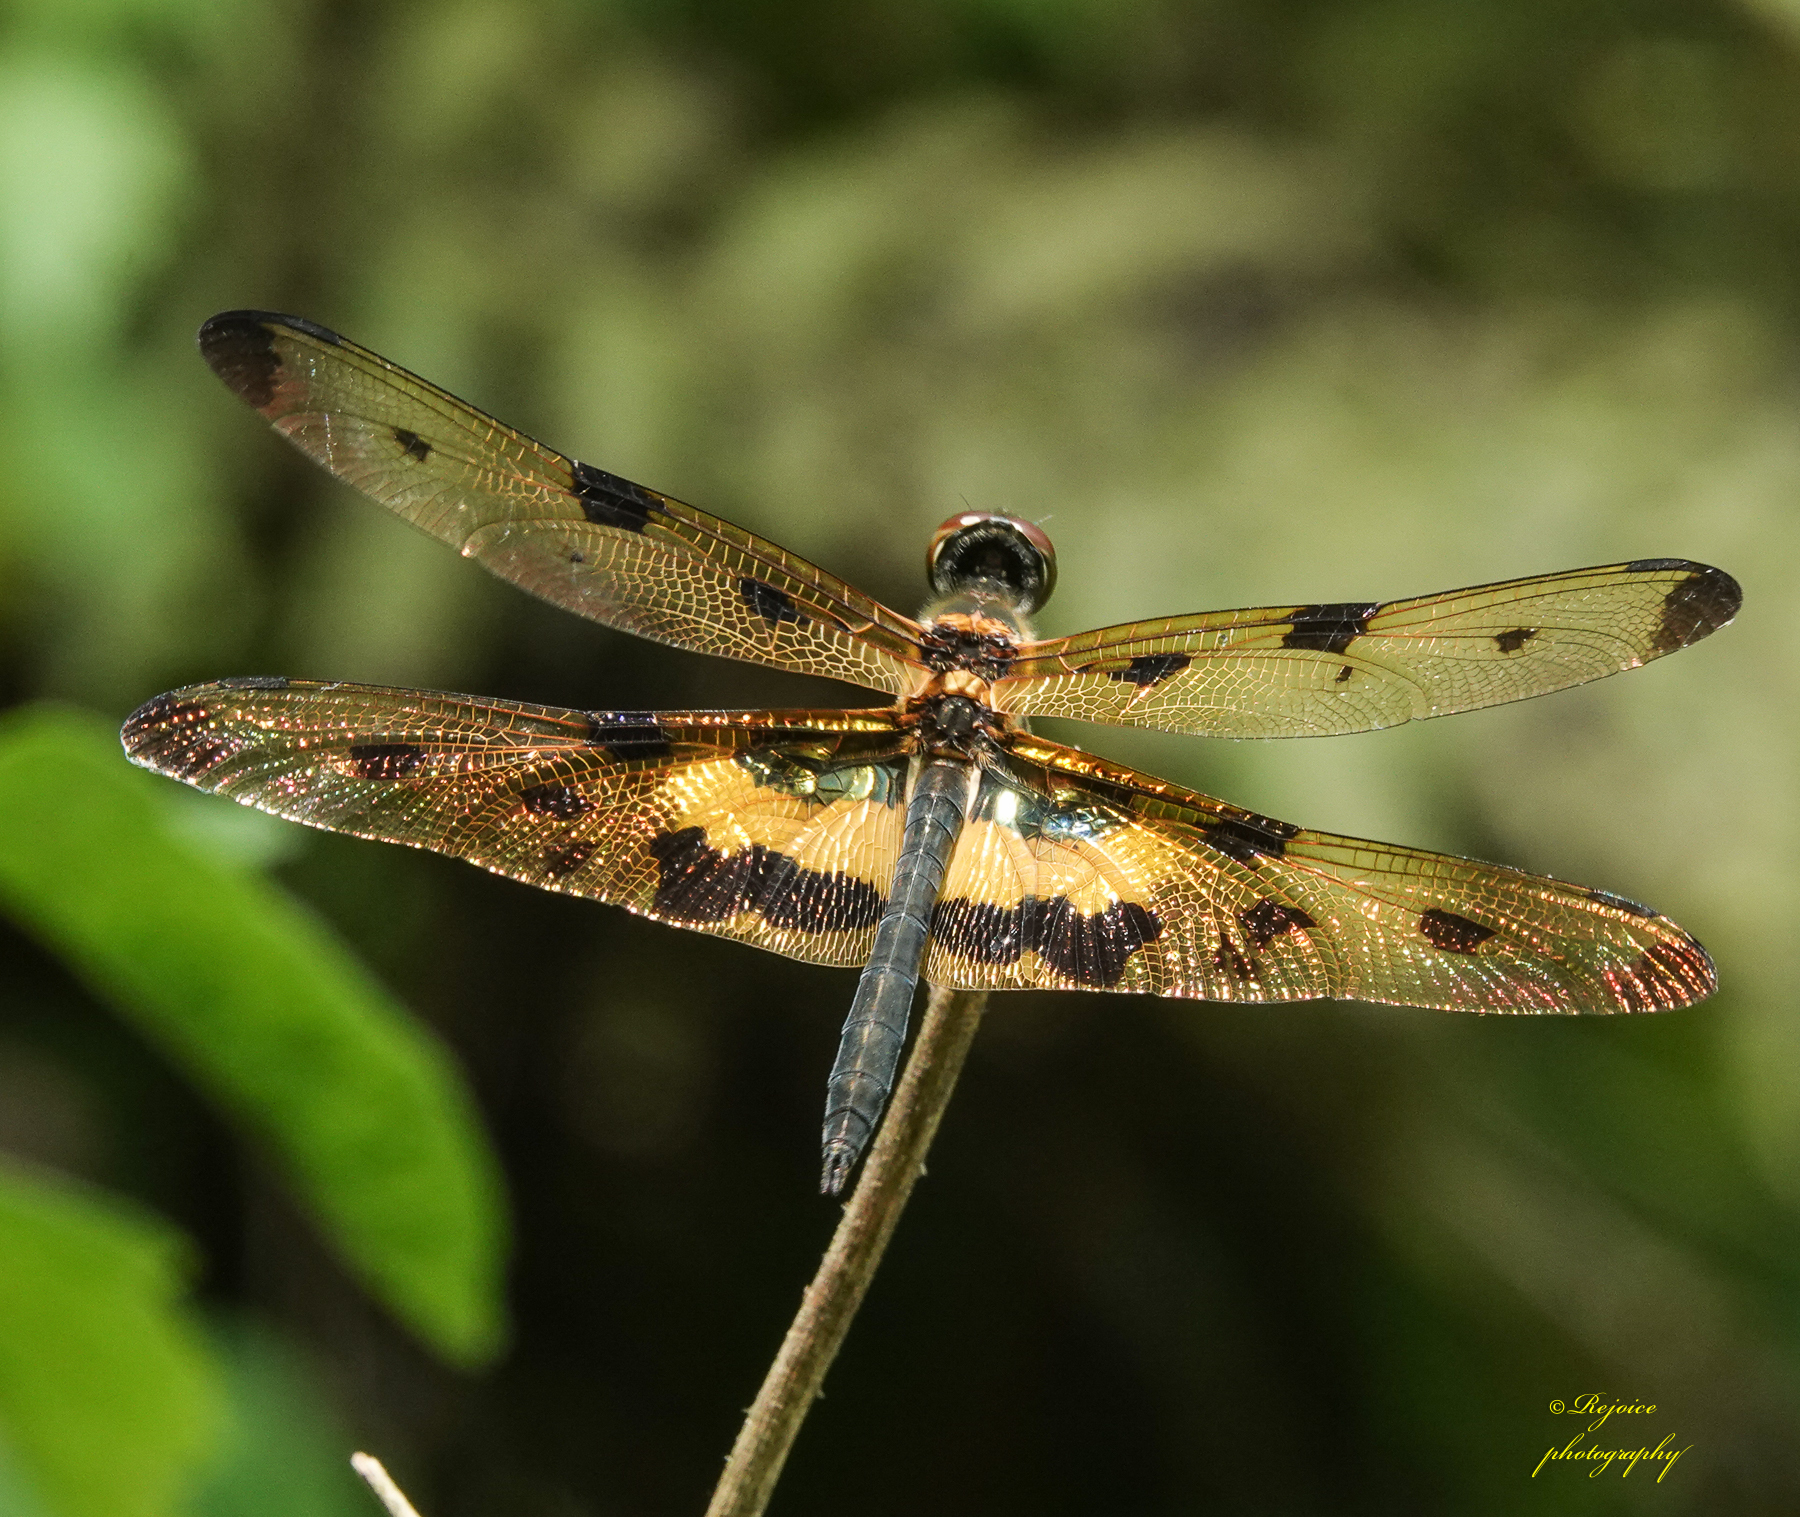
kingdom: Animalia
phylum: Arthropoda
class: Insecta
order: Odonata
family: Libellulidae
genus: Rhyothemis
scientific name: Rhyothemis variegata
